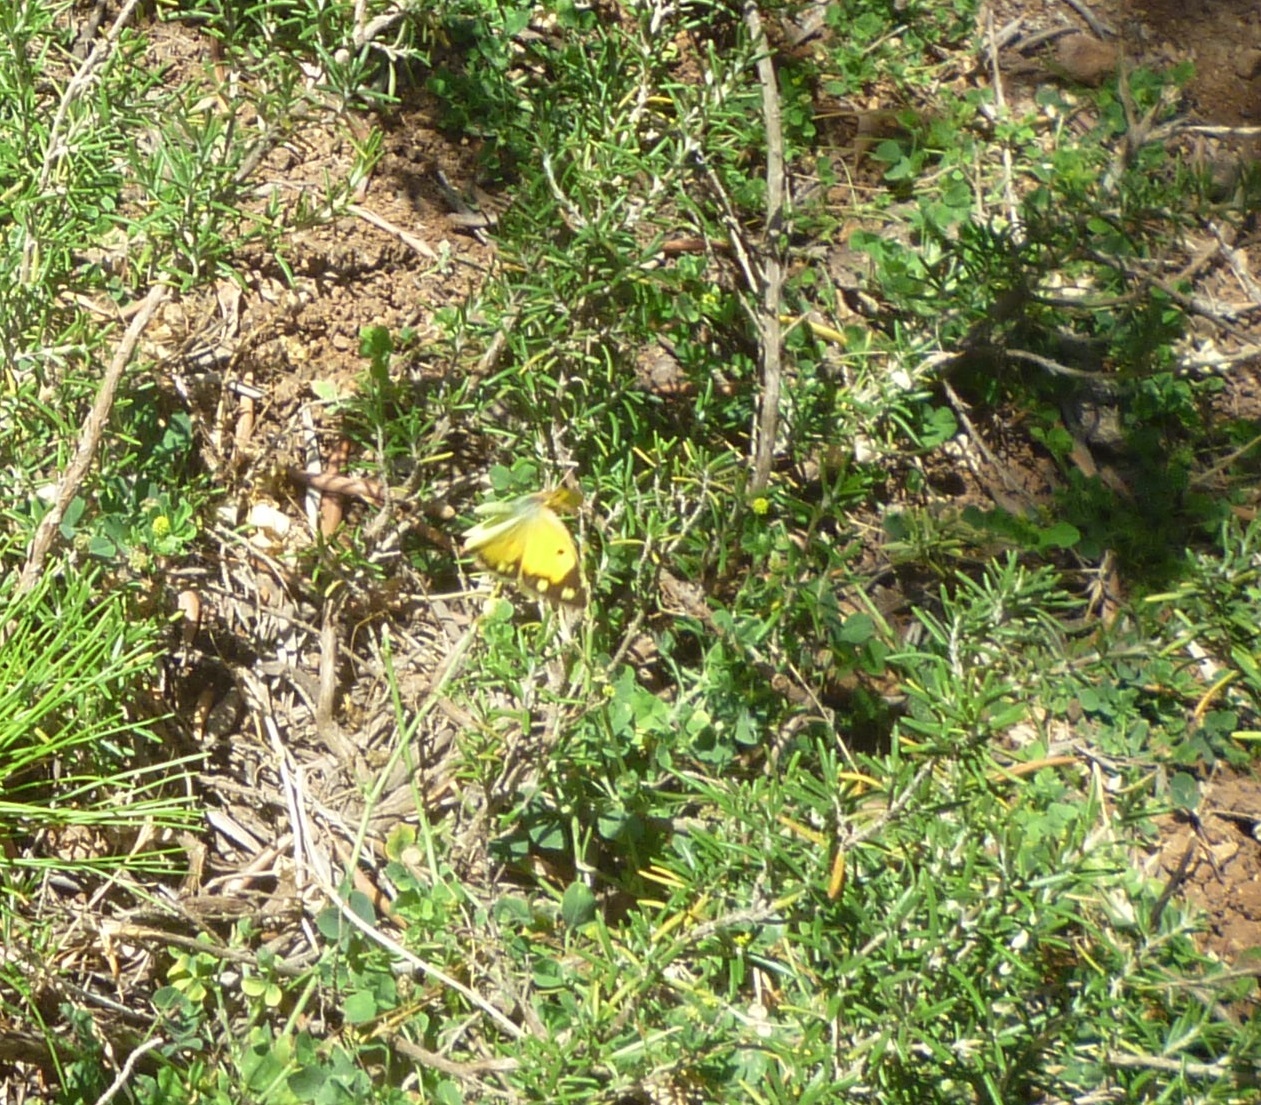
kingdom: Animalia
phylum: Arthropoda
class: Insecta
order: Lepidoptera
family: Pieridae
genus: Colias
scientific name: Colias croceus
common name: Clouded yellow
